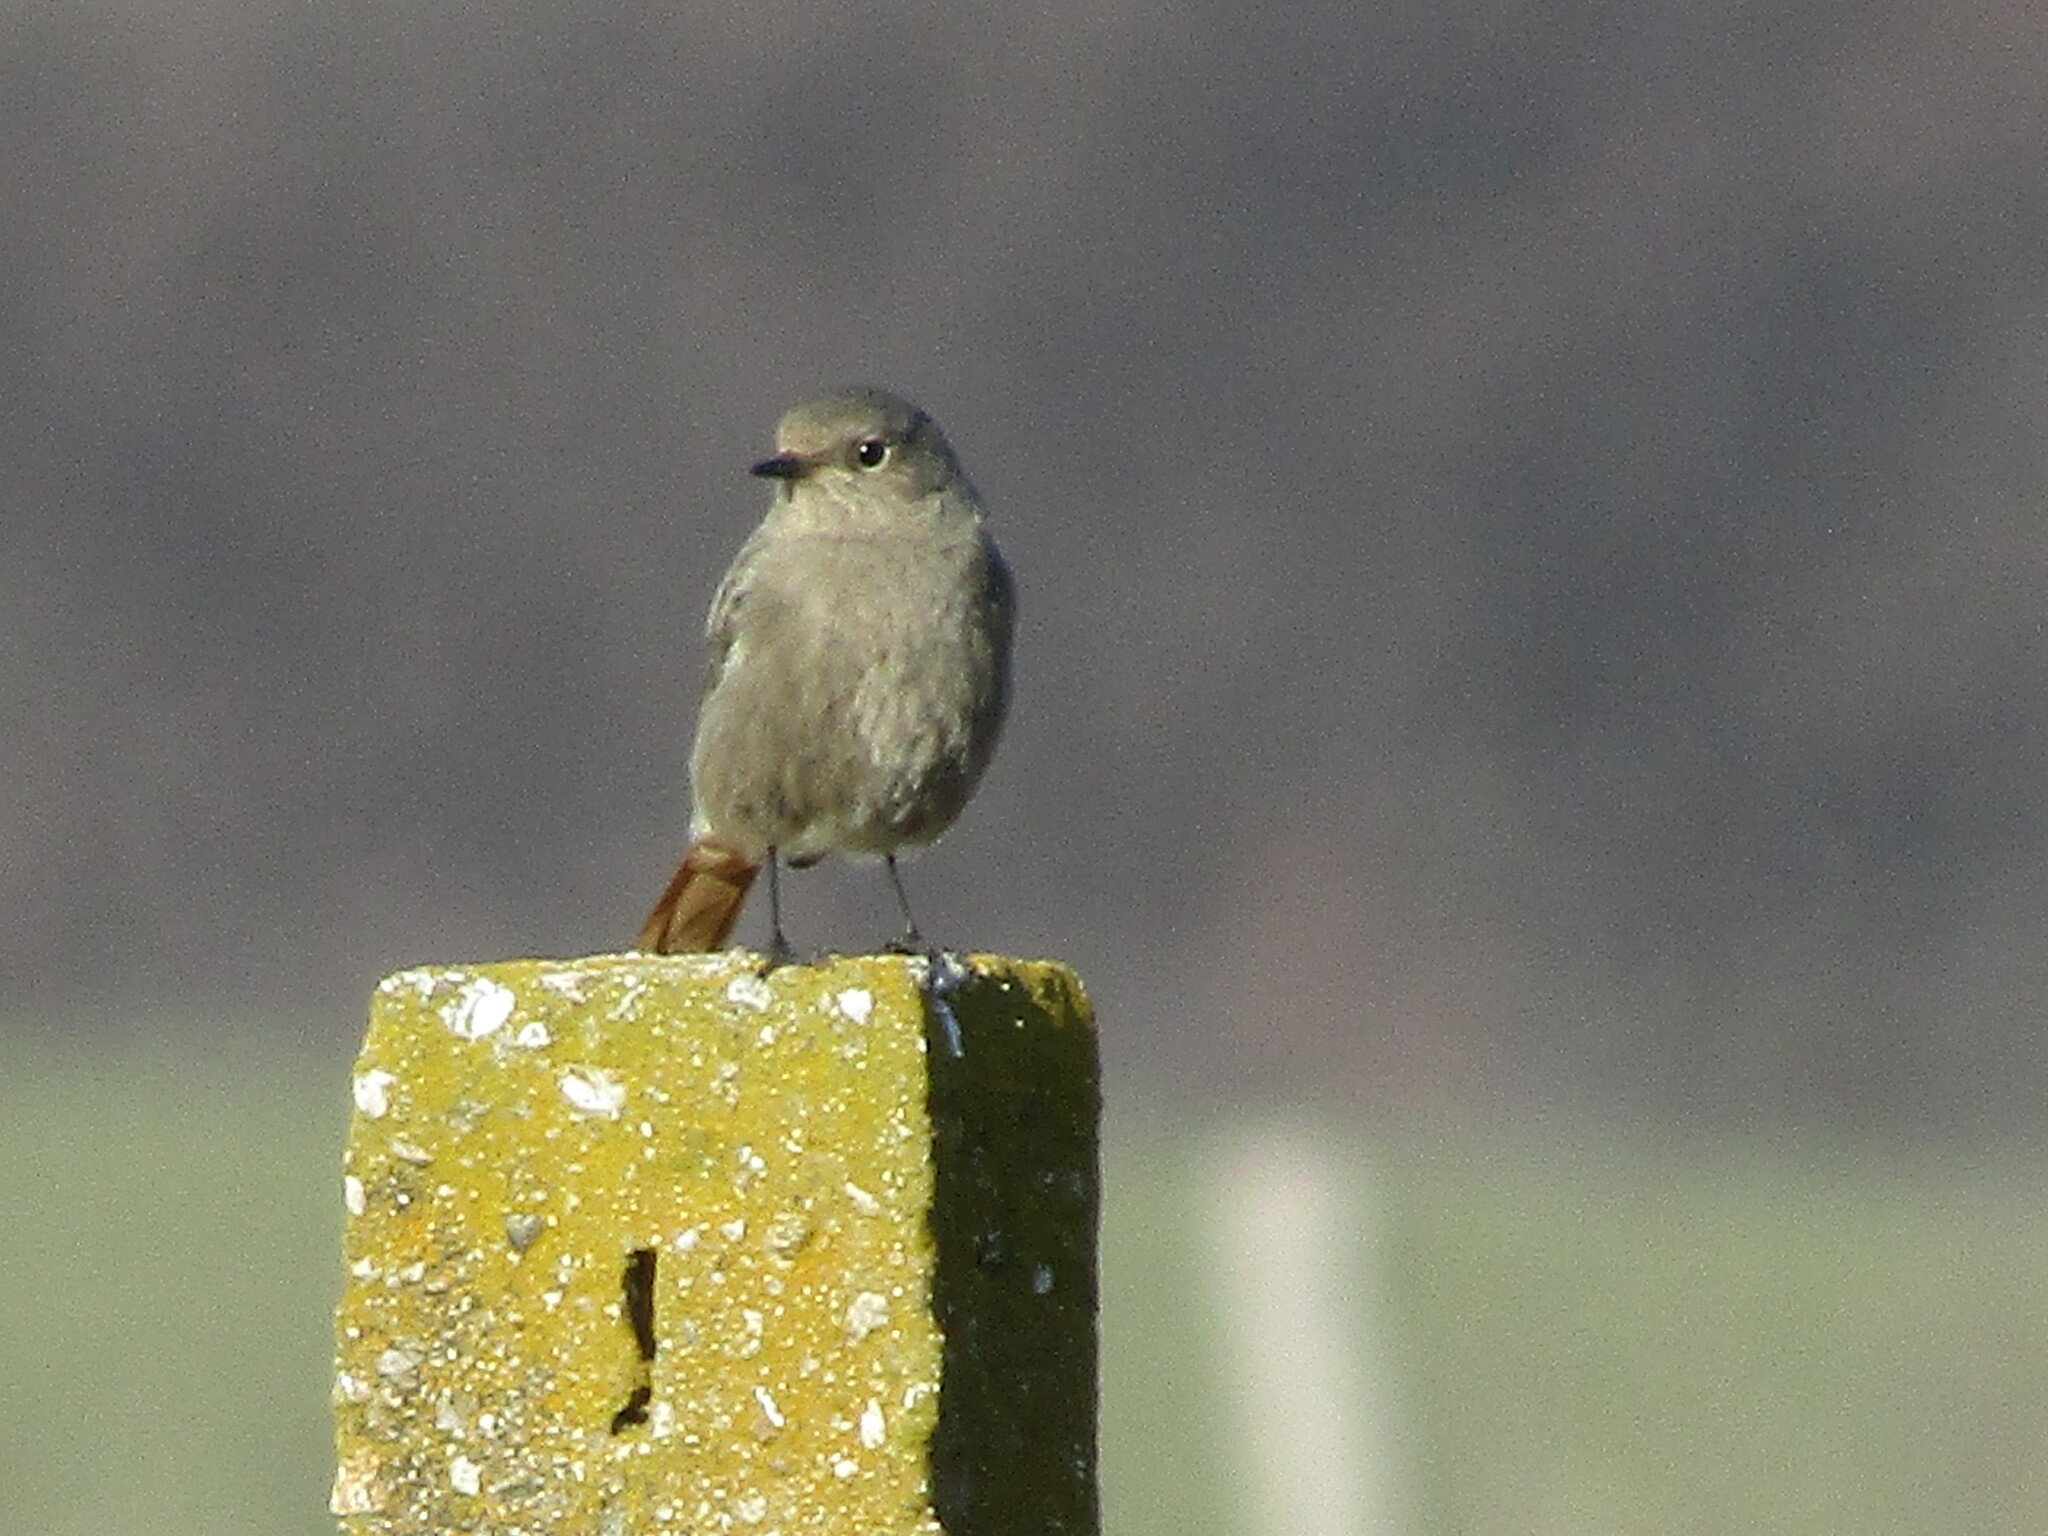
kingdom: Animalia
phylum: Chordata
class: Aves
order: Passeriformes
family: Muscicapidae
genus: Phoenicurus
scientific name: Phoenicurus ochruros
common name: Black redstart
